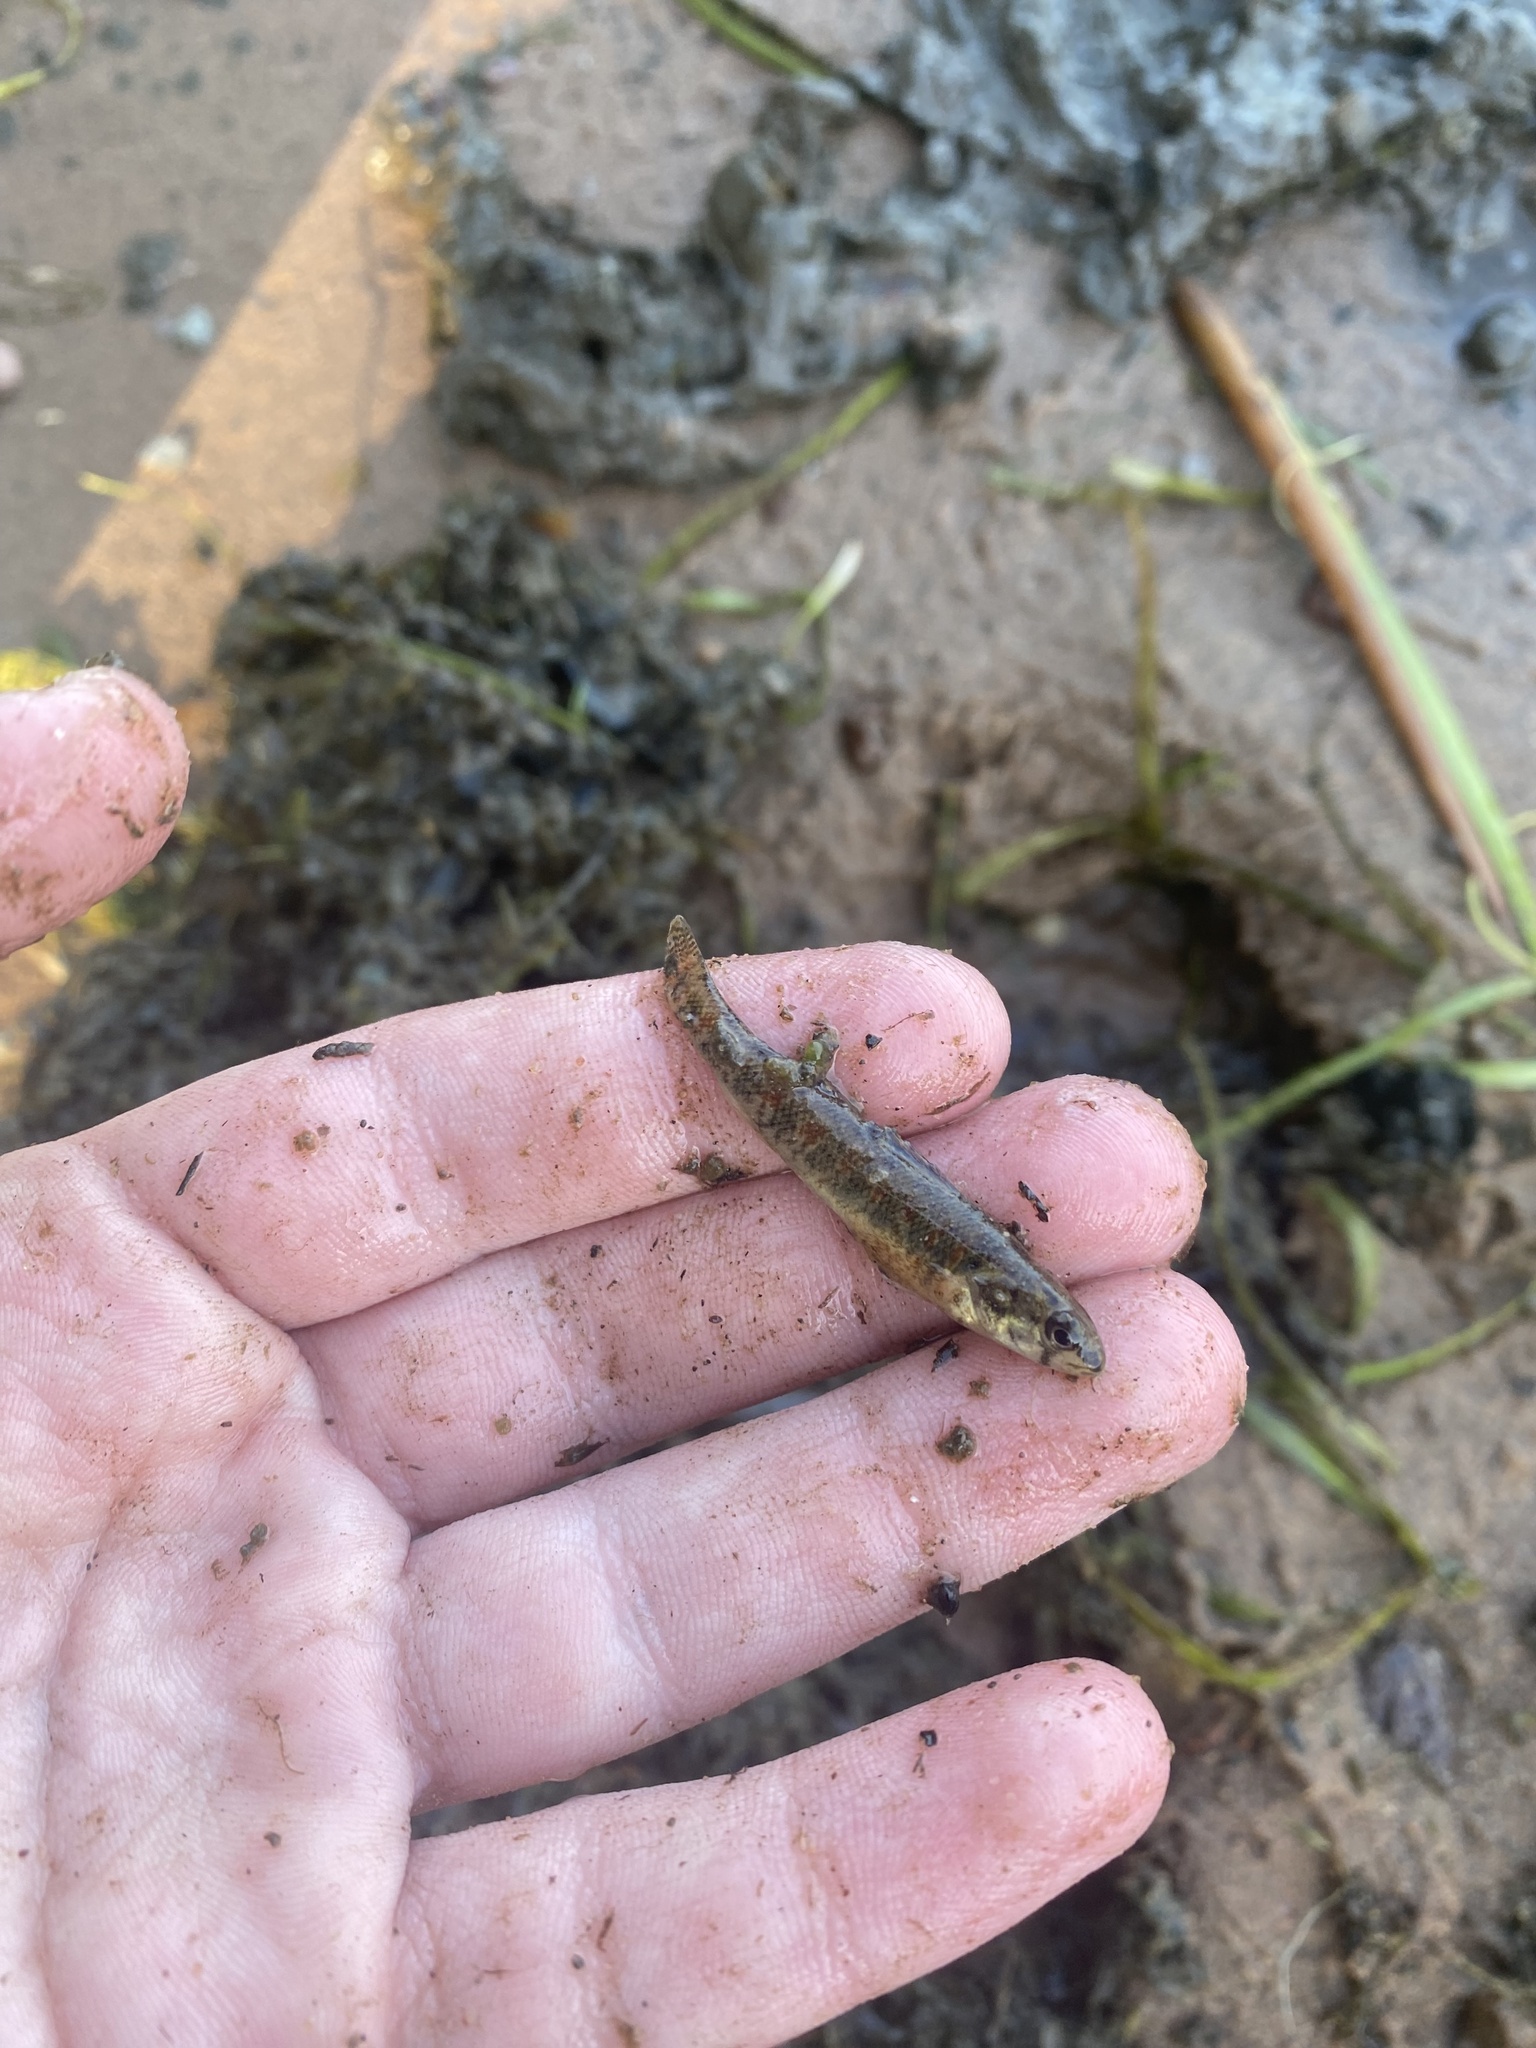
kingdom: Animalia
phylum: Chordata
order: Perciformes
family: Percidae
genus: Etheostoma
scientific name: Etheostoma exile
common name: Iowa darter
